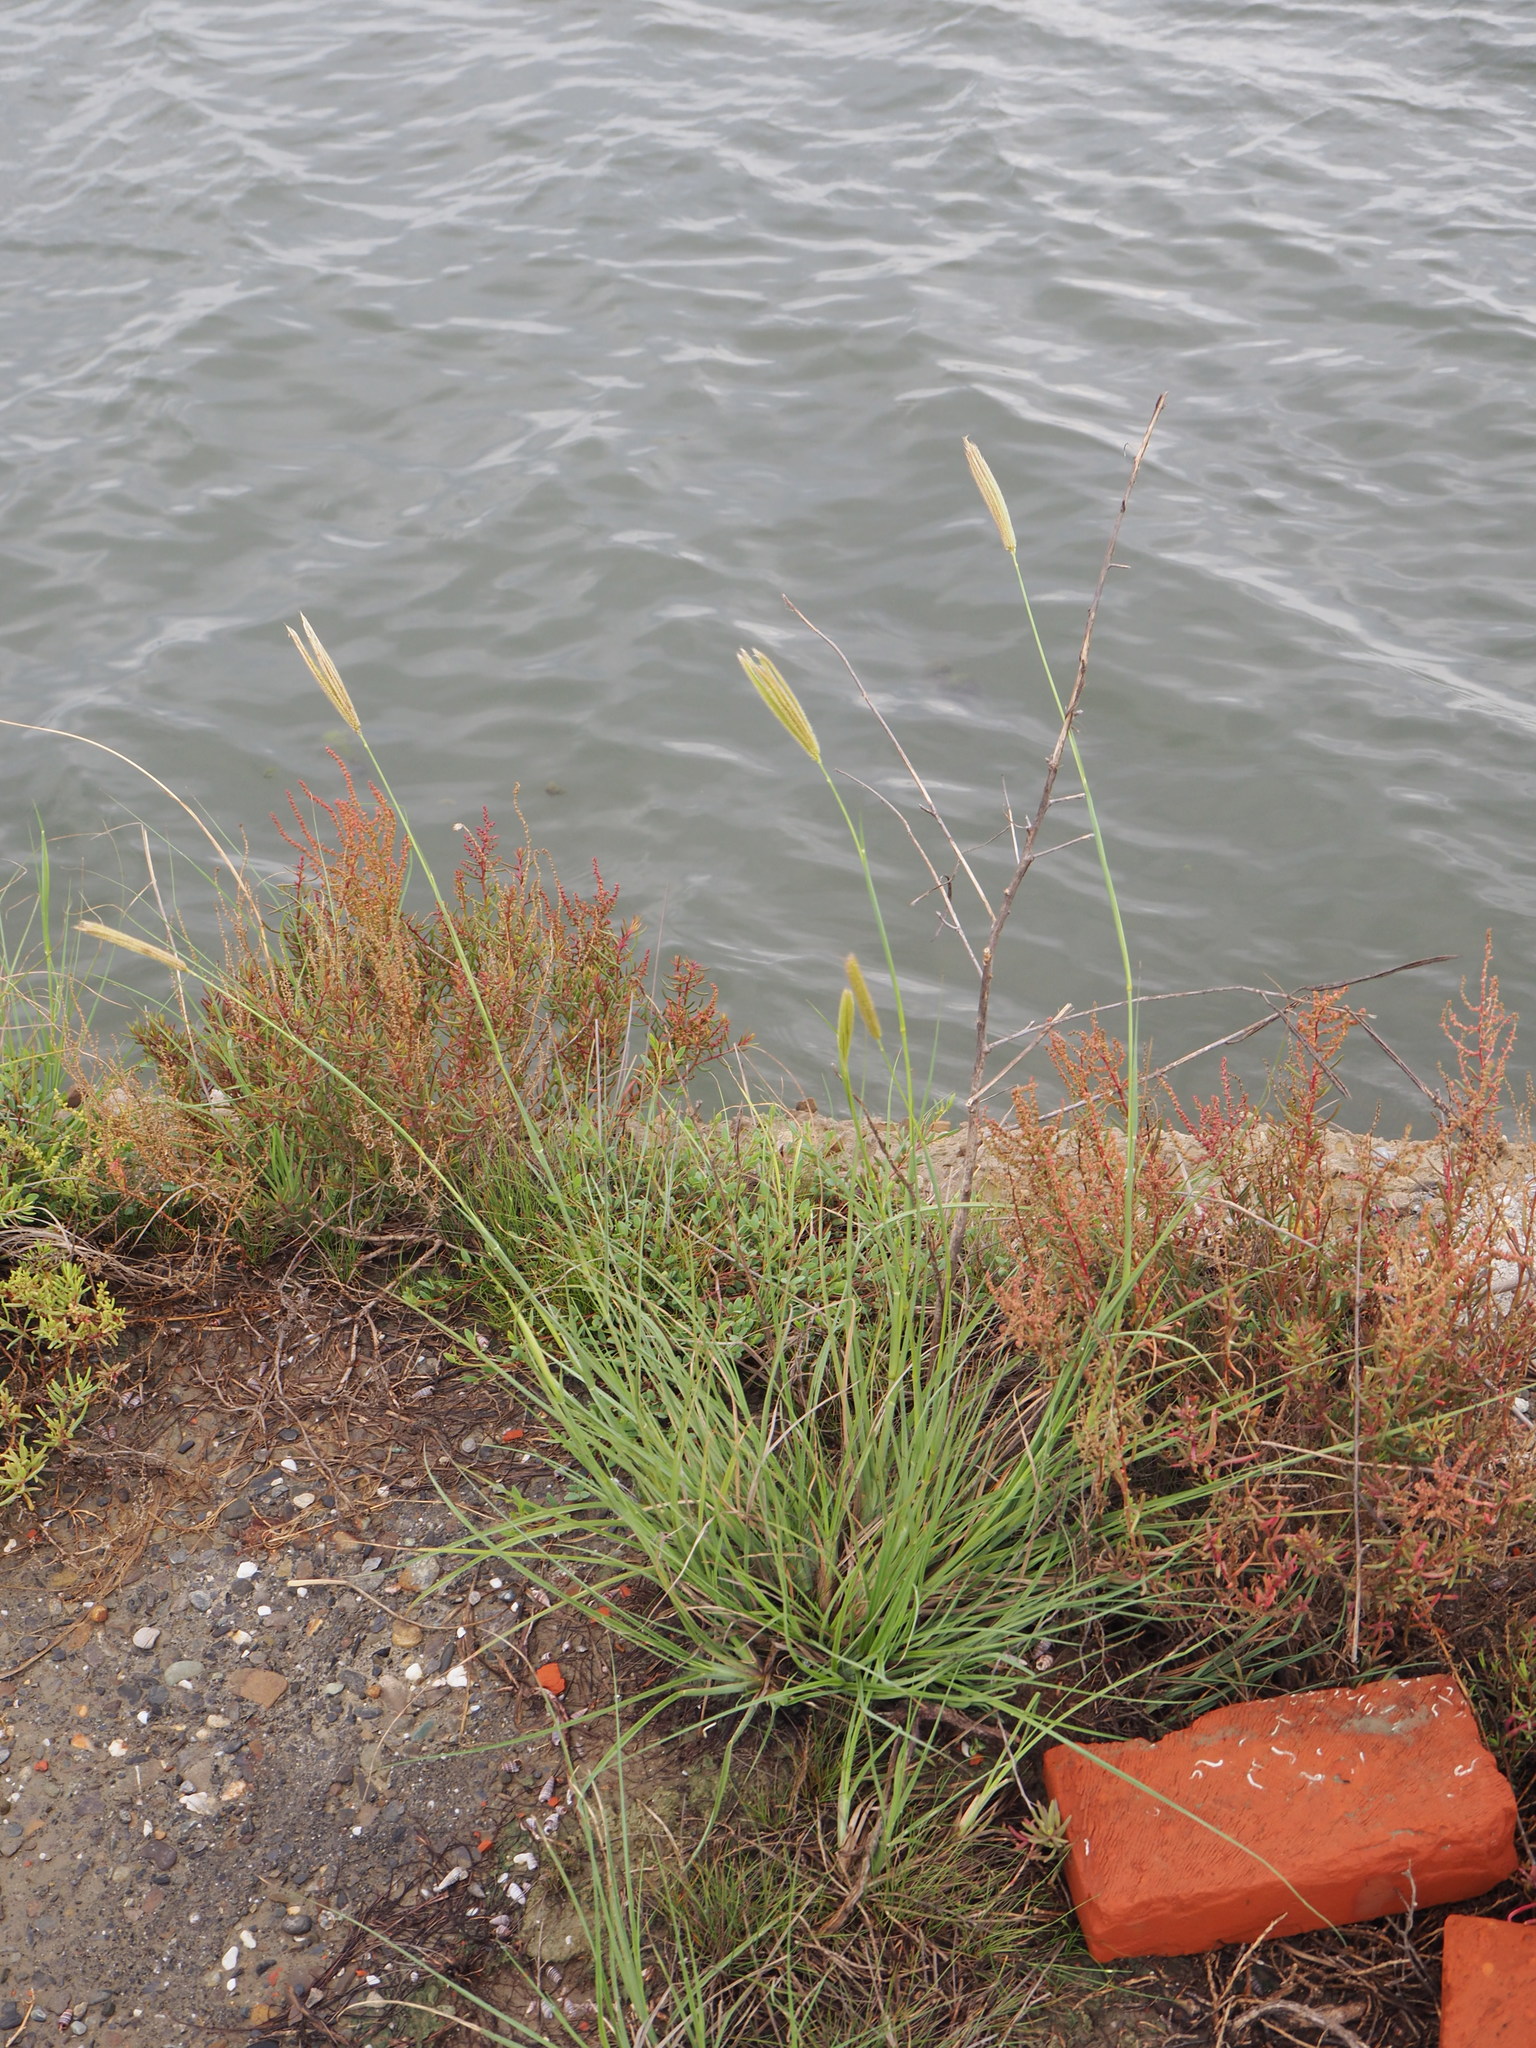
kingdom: Plantae
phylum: Tracheophyta
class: Liliopsida
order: Poales
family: Poaceae
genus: Chloris
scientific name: Chloris formosana
